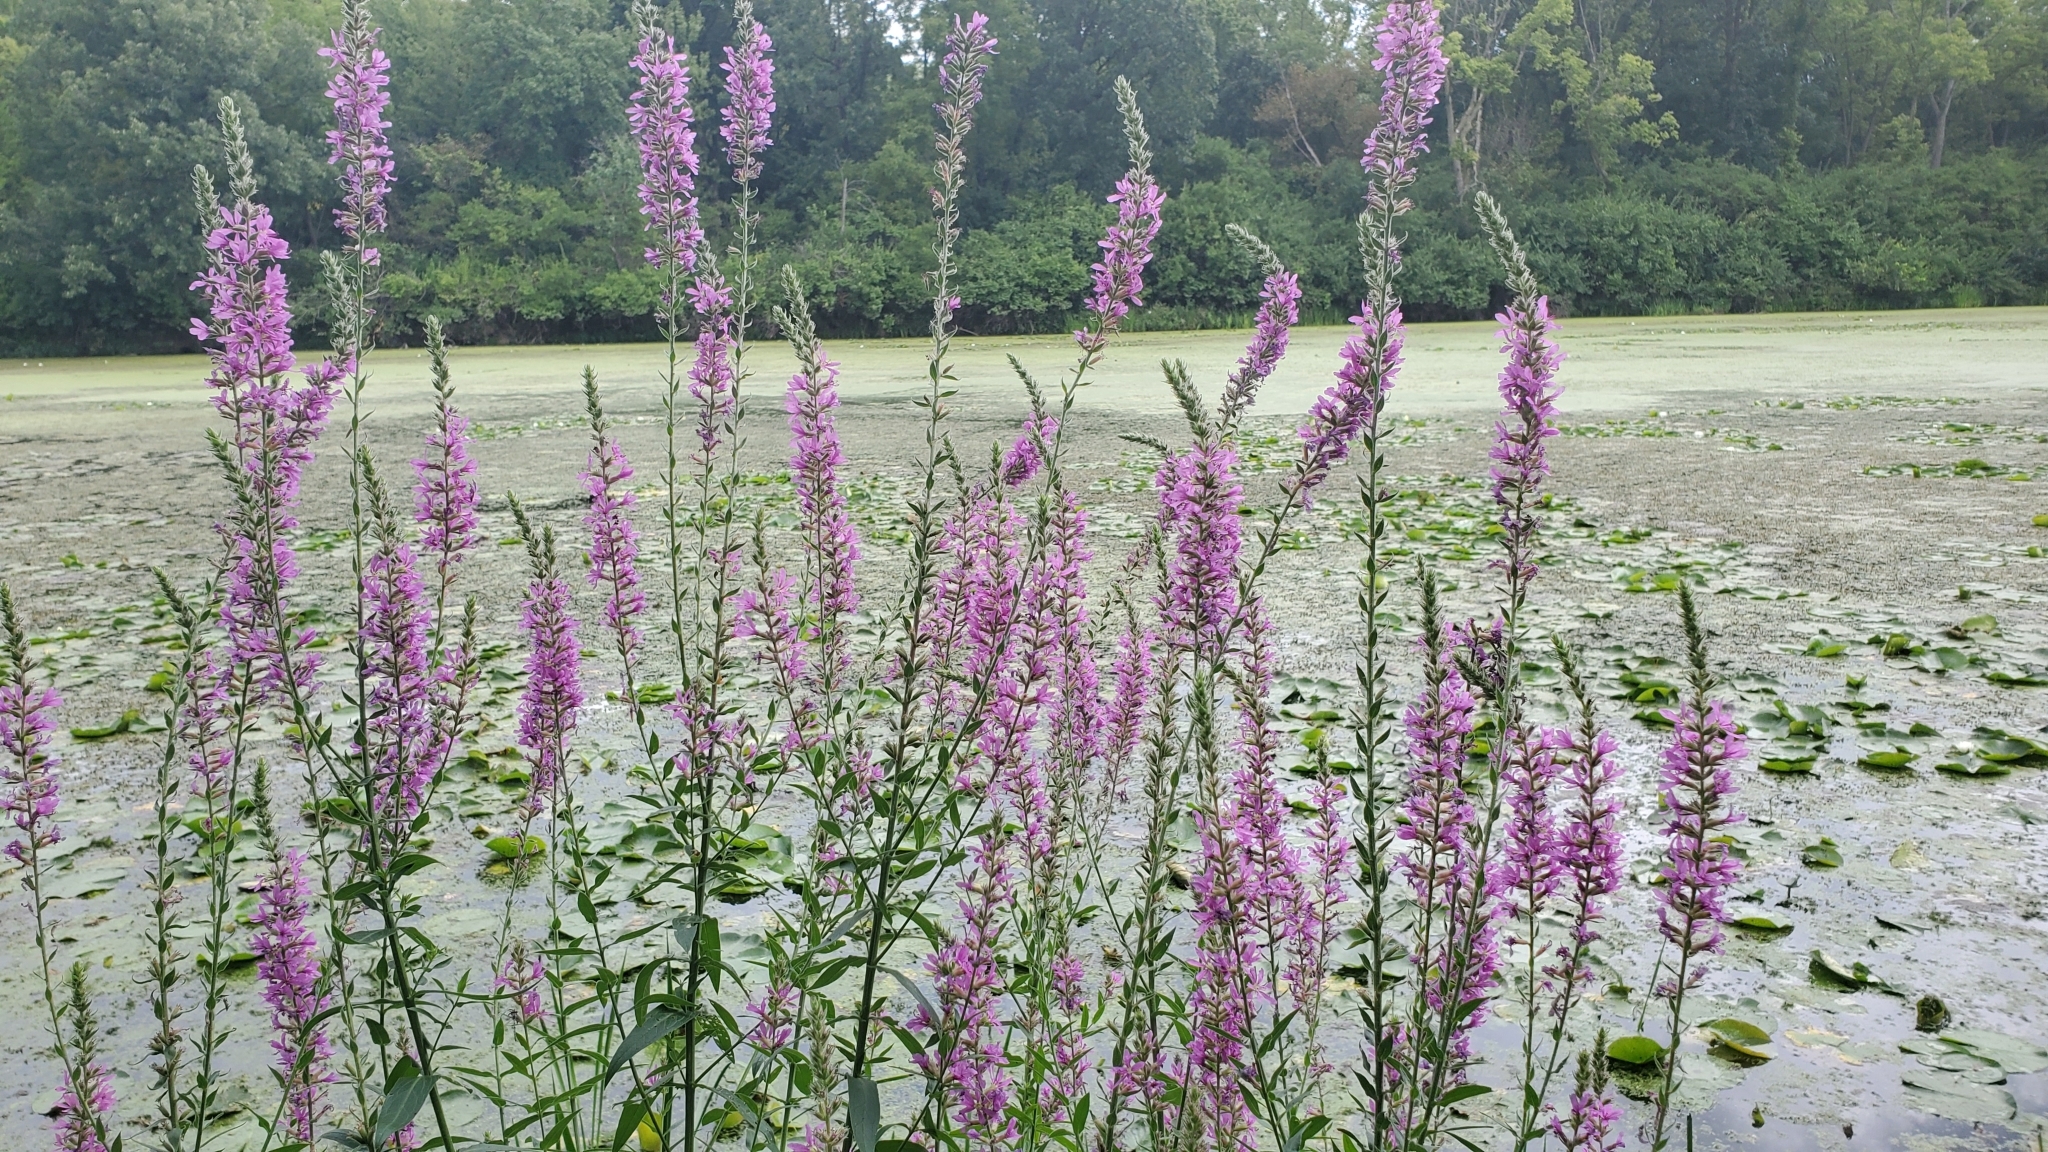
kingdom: Plantae
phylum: Tracheophyta
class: Magnoliopsida
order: Myrtales
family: Lythraceae
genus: Lythrum
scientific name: Lythrum salicaria
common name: Purple loosestrife
